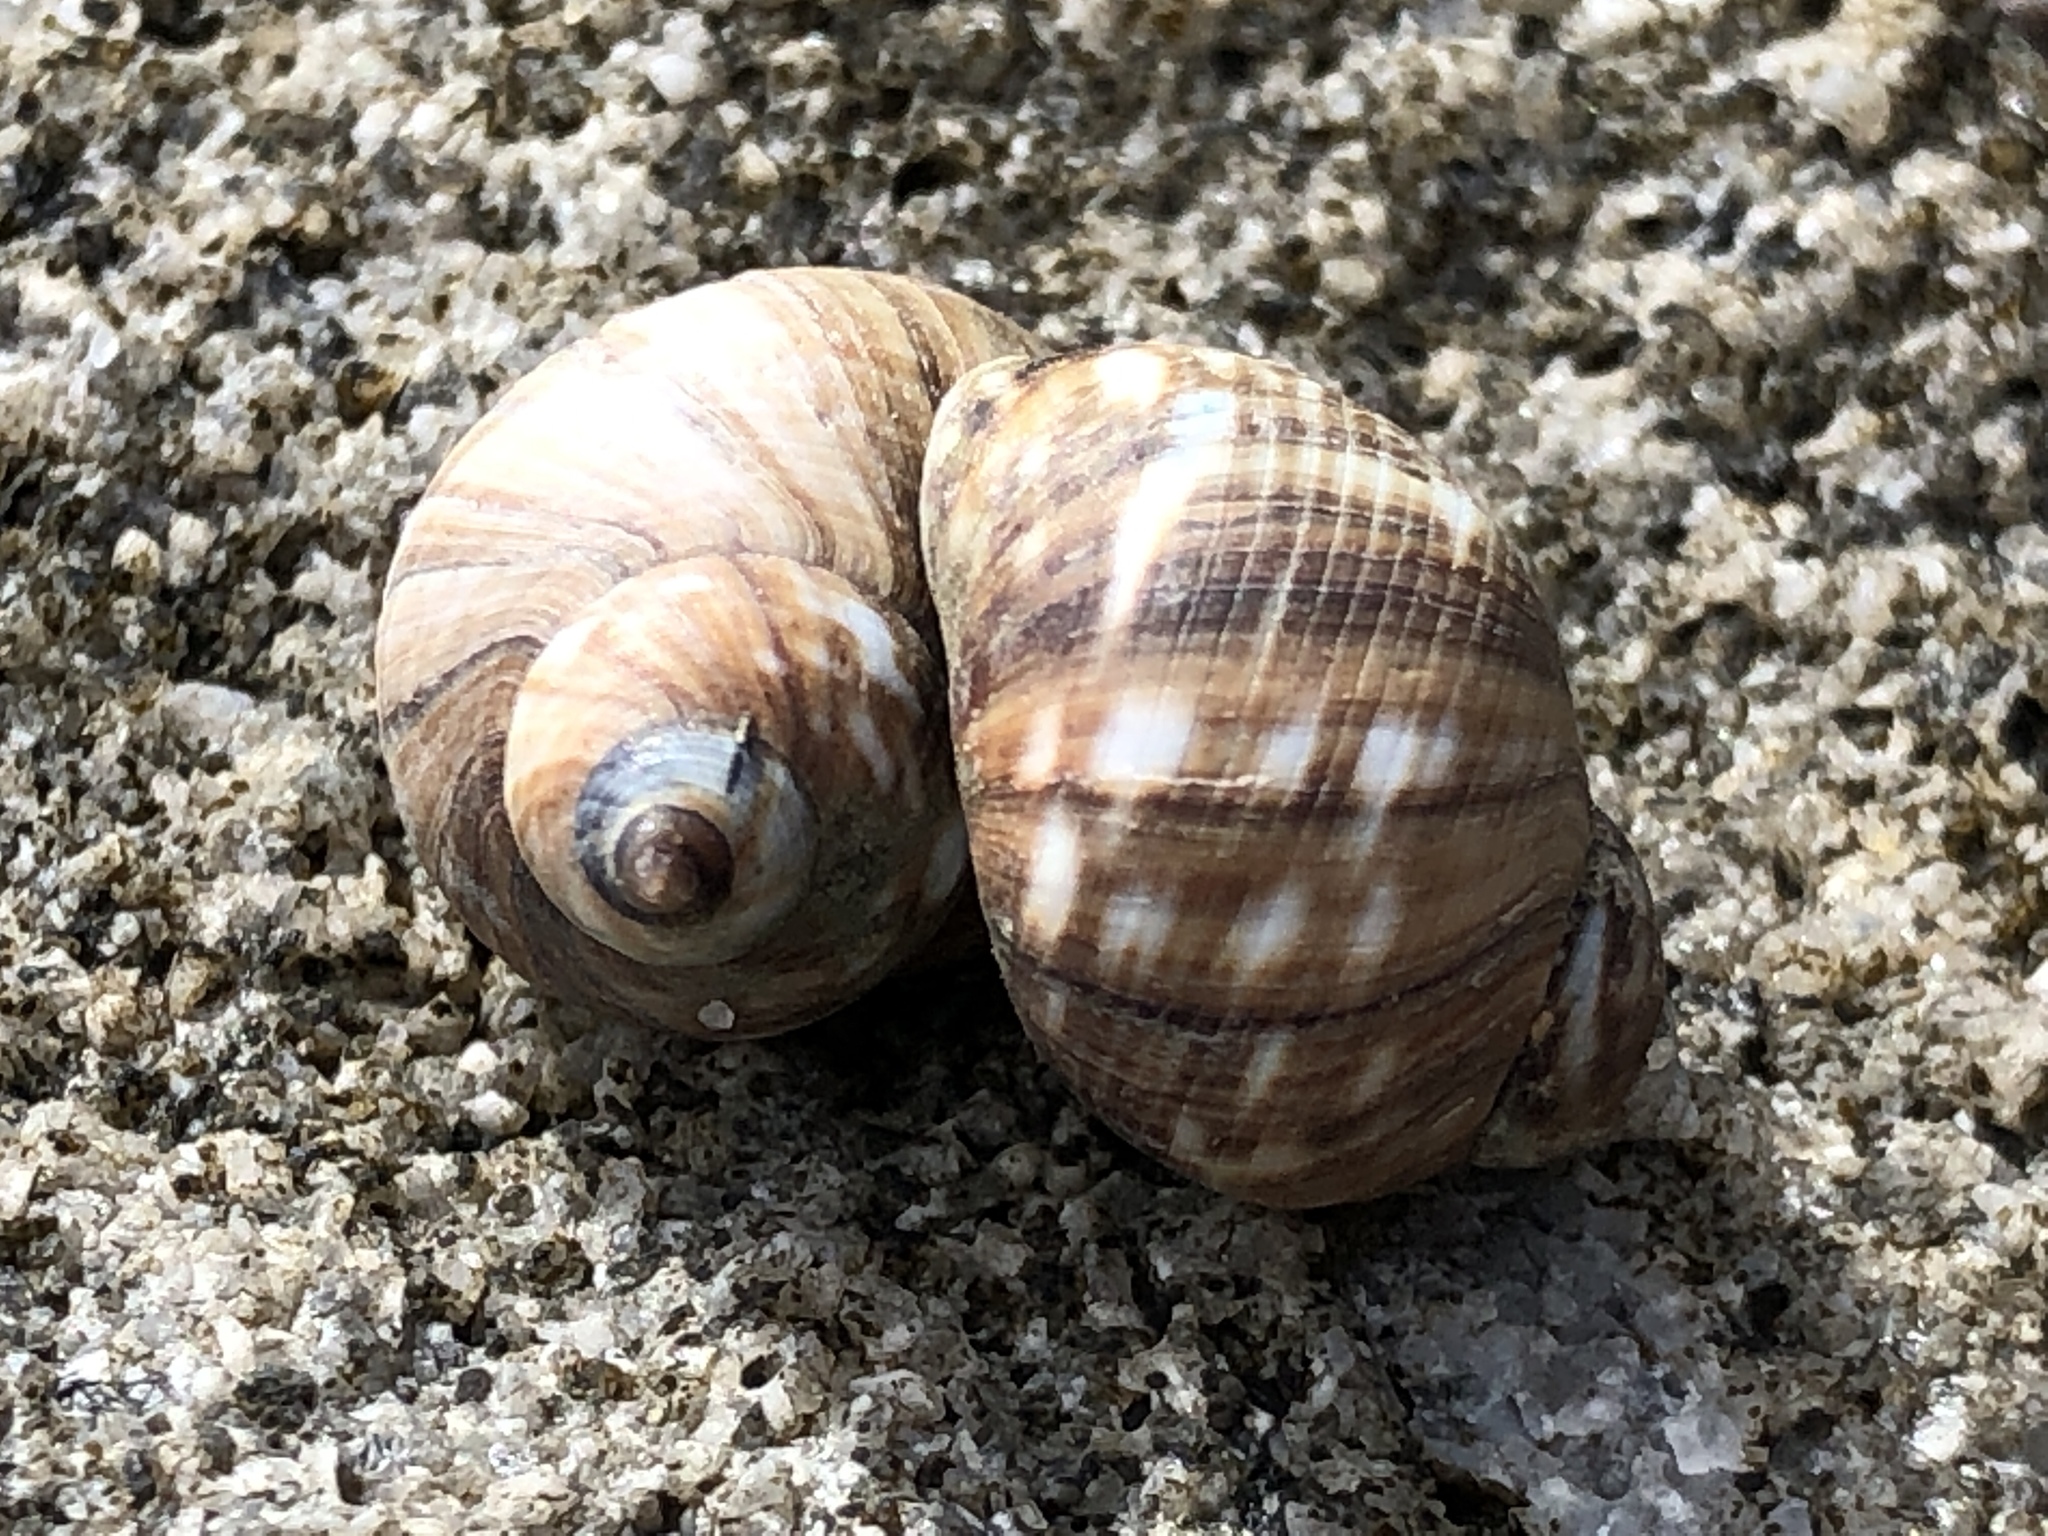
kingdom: Animalia
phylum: Mollusca
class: Gastropoda
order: Littorinimorpha
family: Littorinidae
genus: Littorina
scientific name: Littorina keenae
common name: Eroded periwinkle
